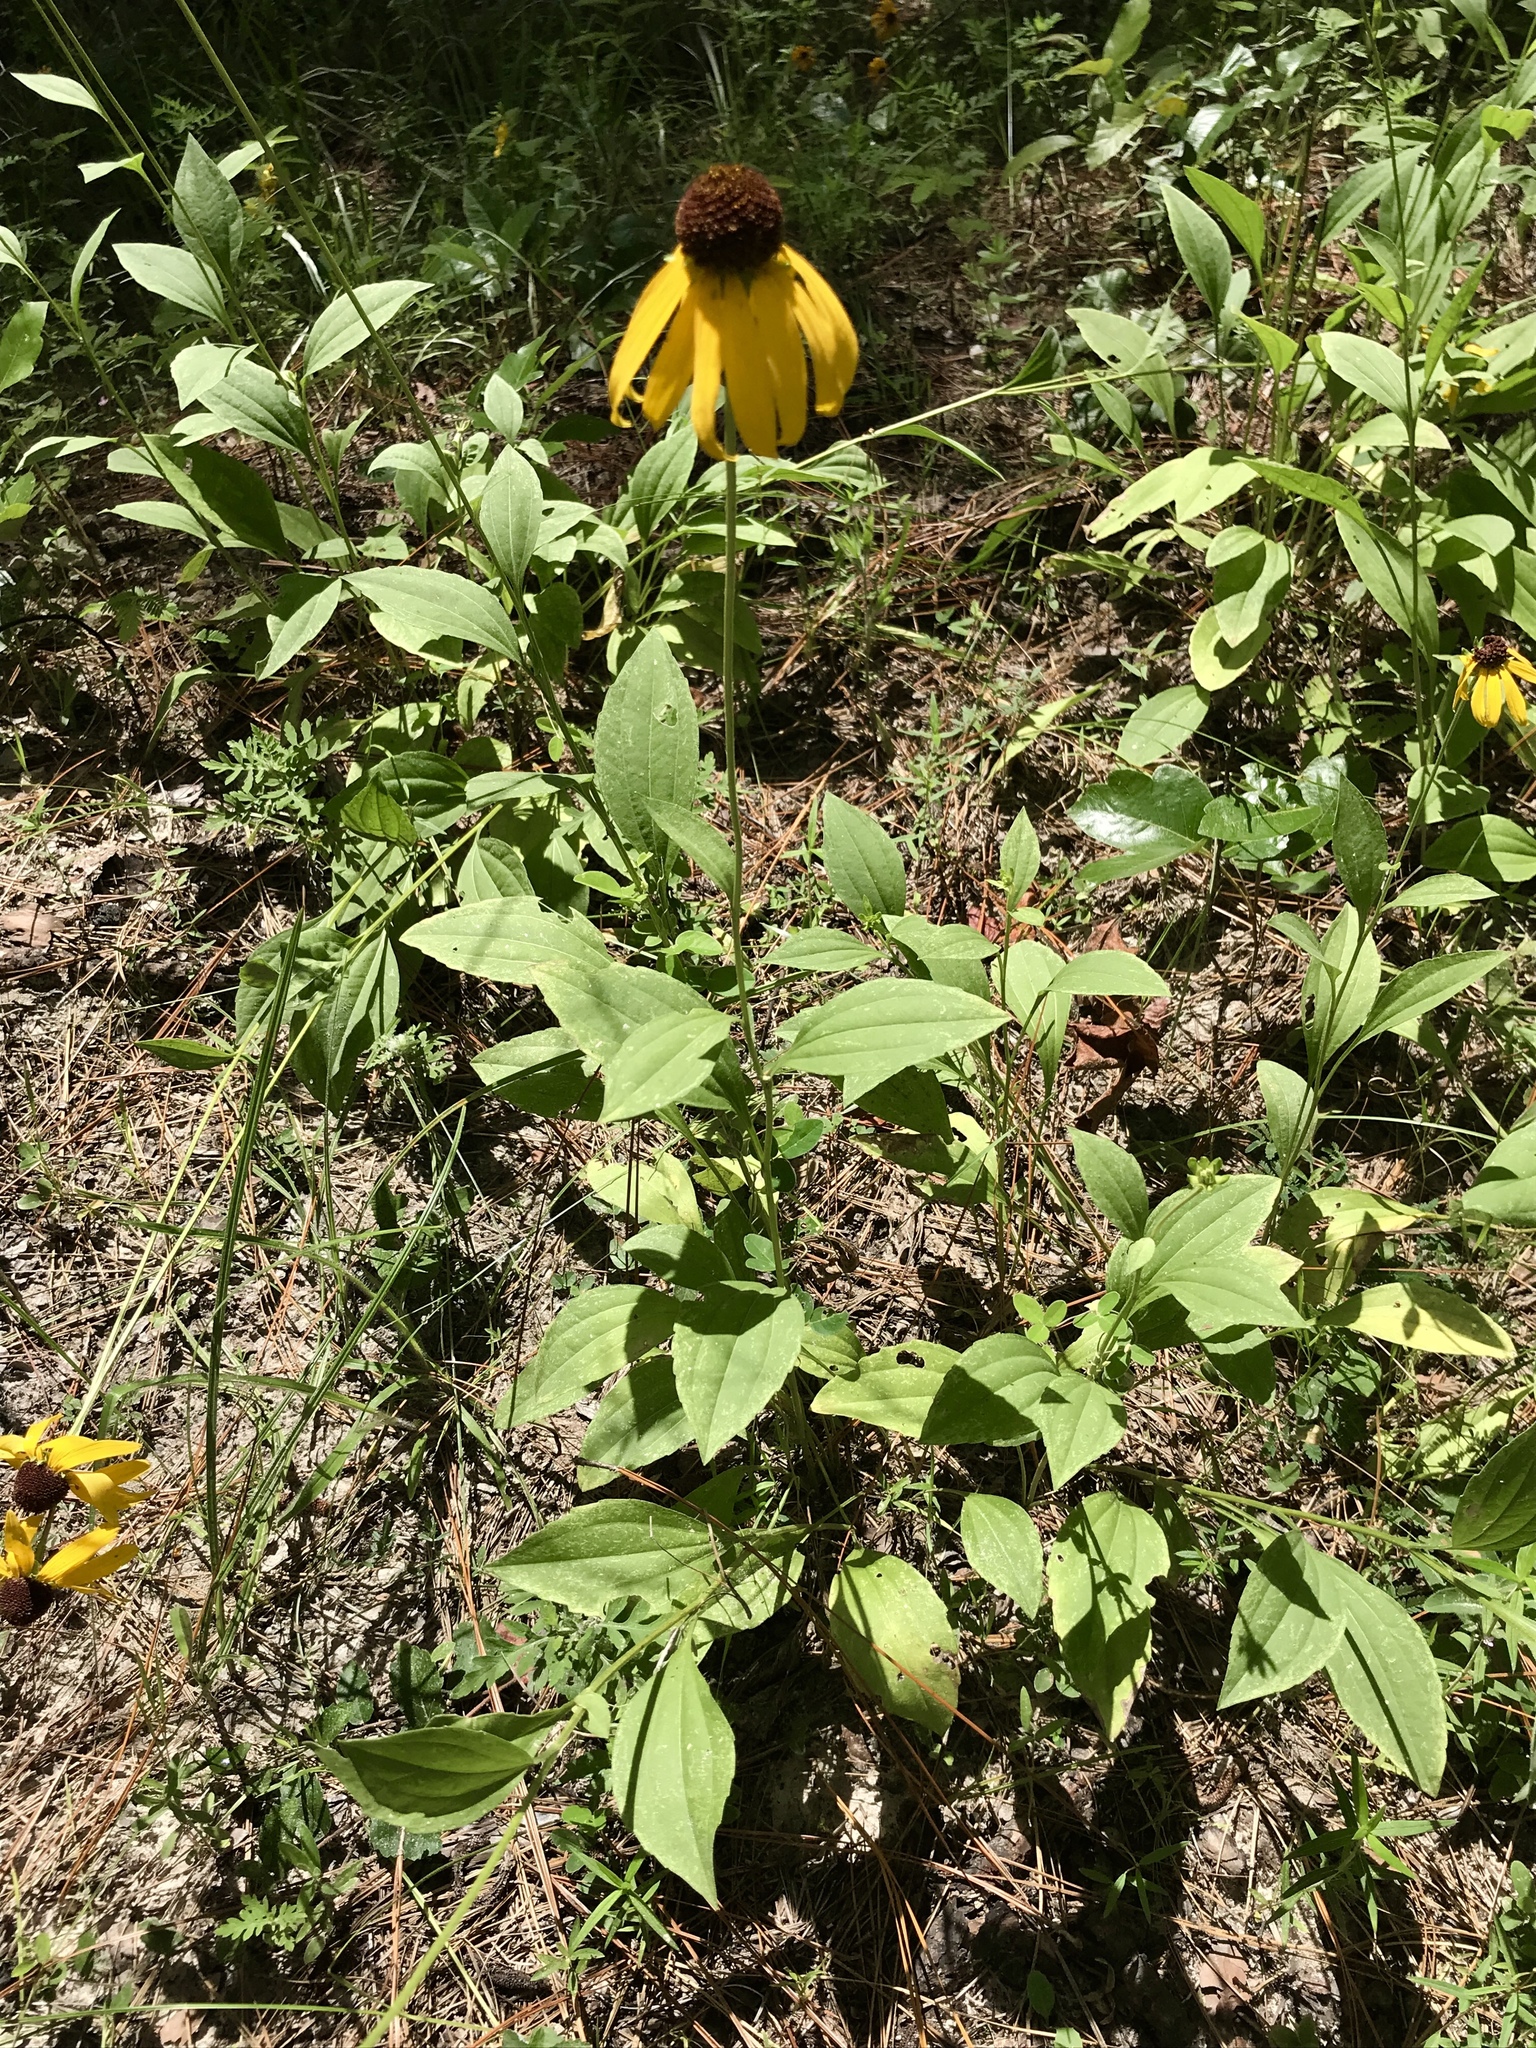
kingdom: Plantae
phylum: Tracheophyta
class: Magnoliopsida
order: Asterales
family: Asteraceae
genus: Rudbeckia
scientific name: Rudbeckia grandiflora
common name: Large-flowered coneflower
